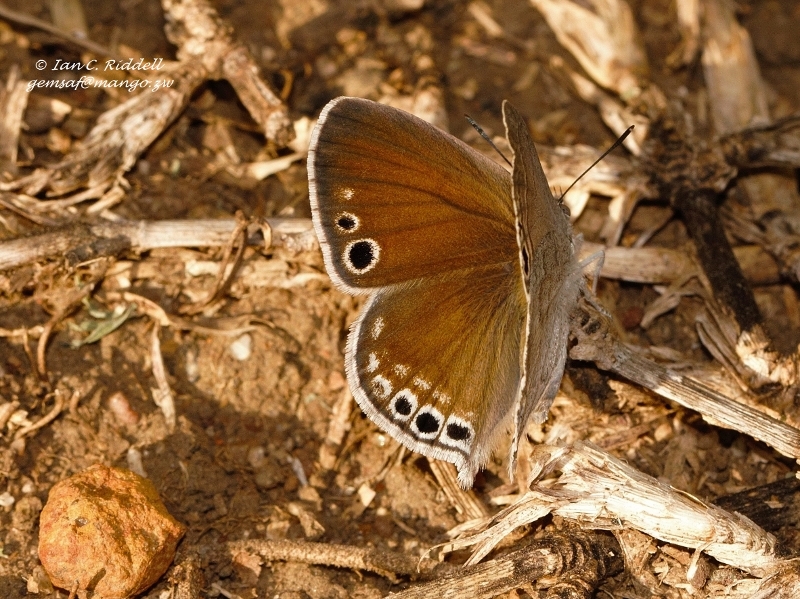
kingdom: Animalia
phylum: Arthropoda
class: Insecta
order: Lepidoptera
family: Lycaenidae
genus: Leptomyrina
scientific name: Leptomyrina gorgias
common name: Common black-eye
